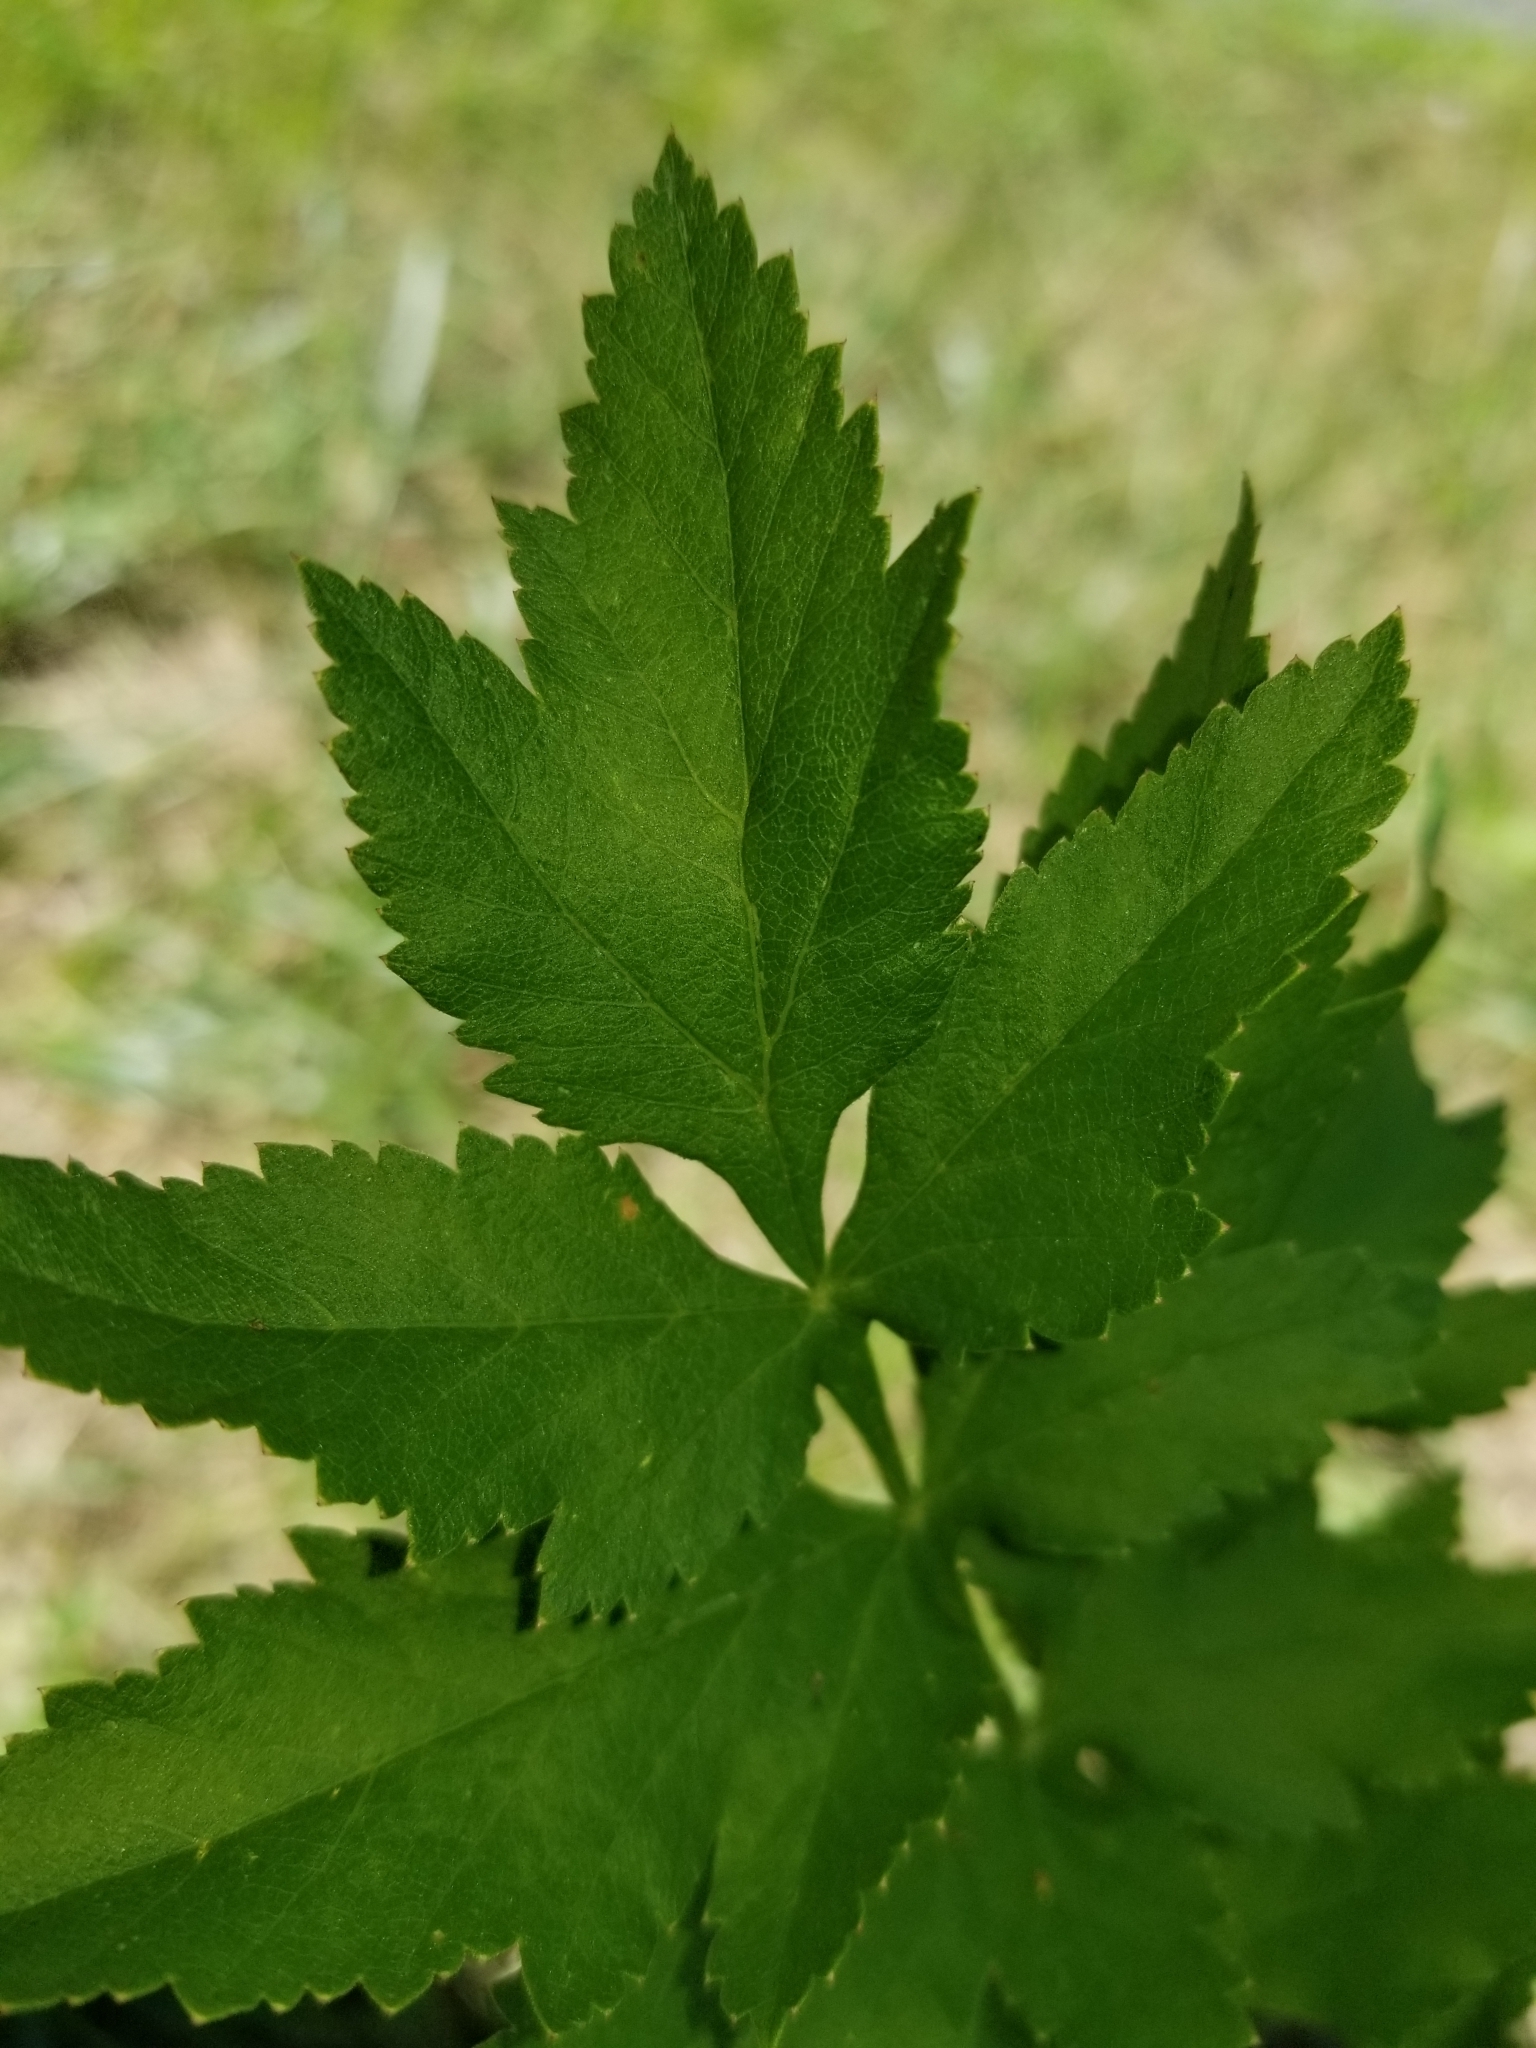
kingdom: Plantae
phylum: Tracheophyta
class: Magnoliopsida
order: Apiales
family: Apiaceae
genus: Zizia
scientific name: Zizia aurea
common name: Golden alexanders
